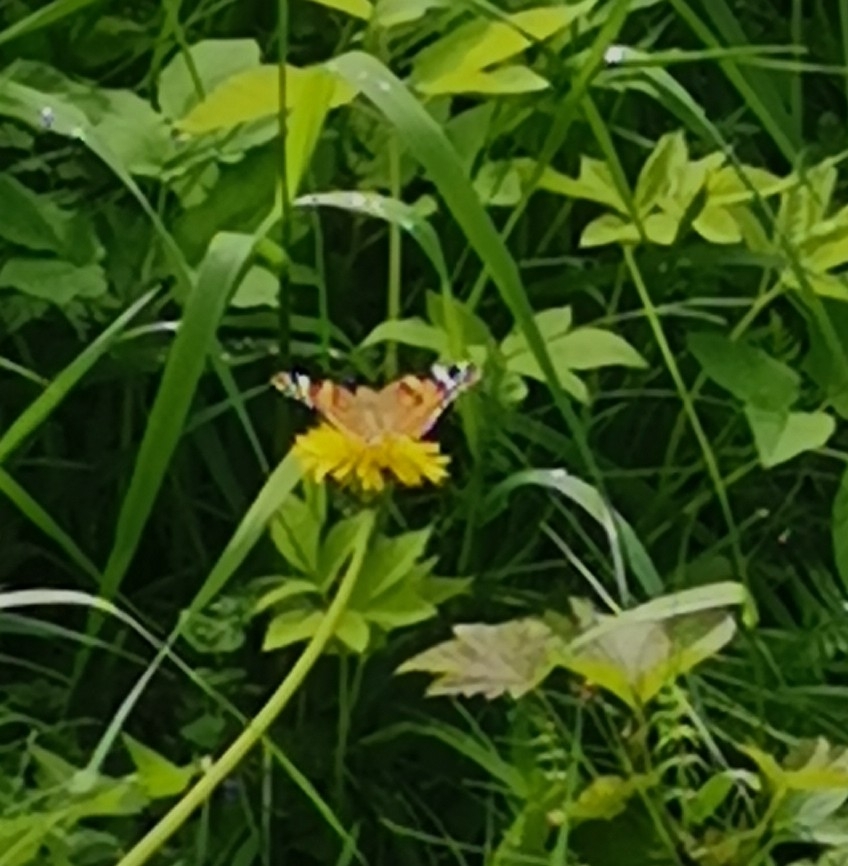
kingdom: Animalia
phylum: Arthropoda
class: Insecta
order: Lepidoptera
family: Nymphalidae
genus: Vanessa
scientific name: Vanessa cardui
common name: Painted lady
